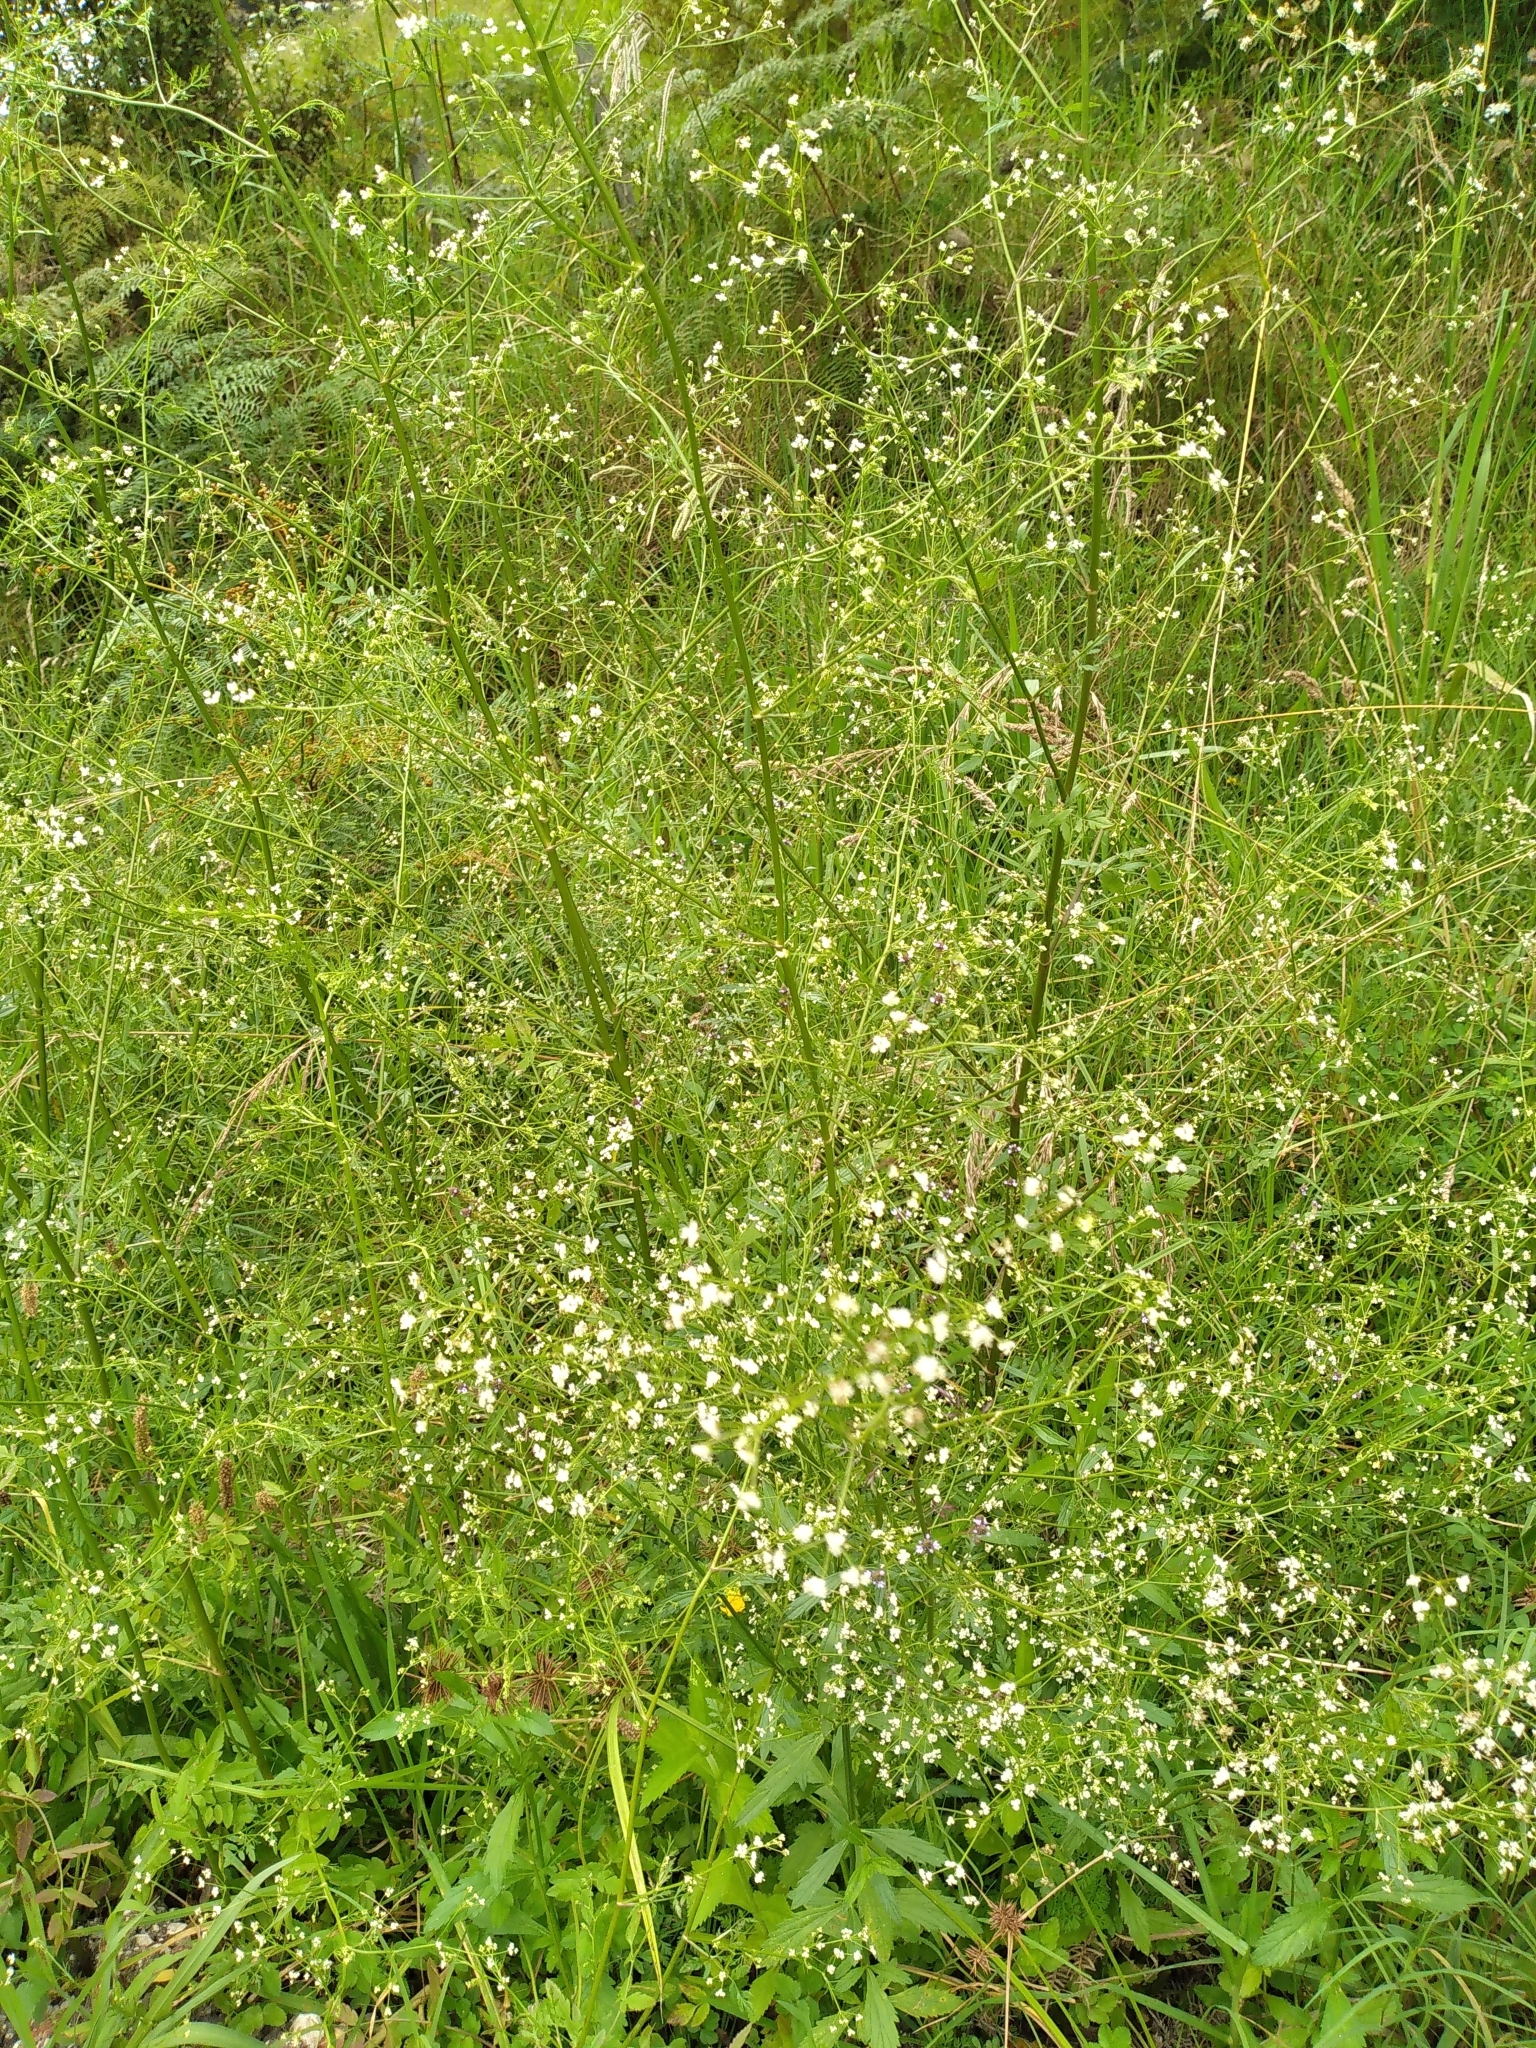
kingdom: Plantae
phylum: Tracheophyta
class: Magnoliopsida
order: Apiales
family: Apiaceae
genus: Sison
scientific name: Sison amomum
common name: Stone-parsley
